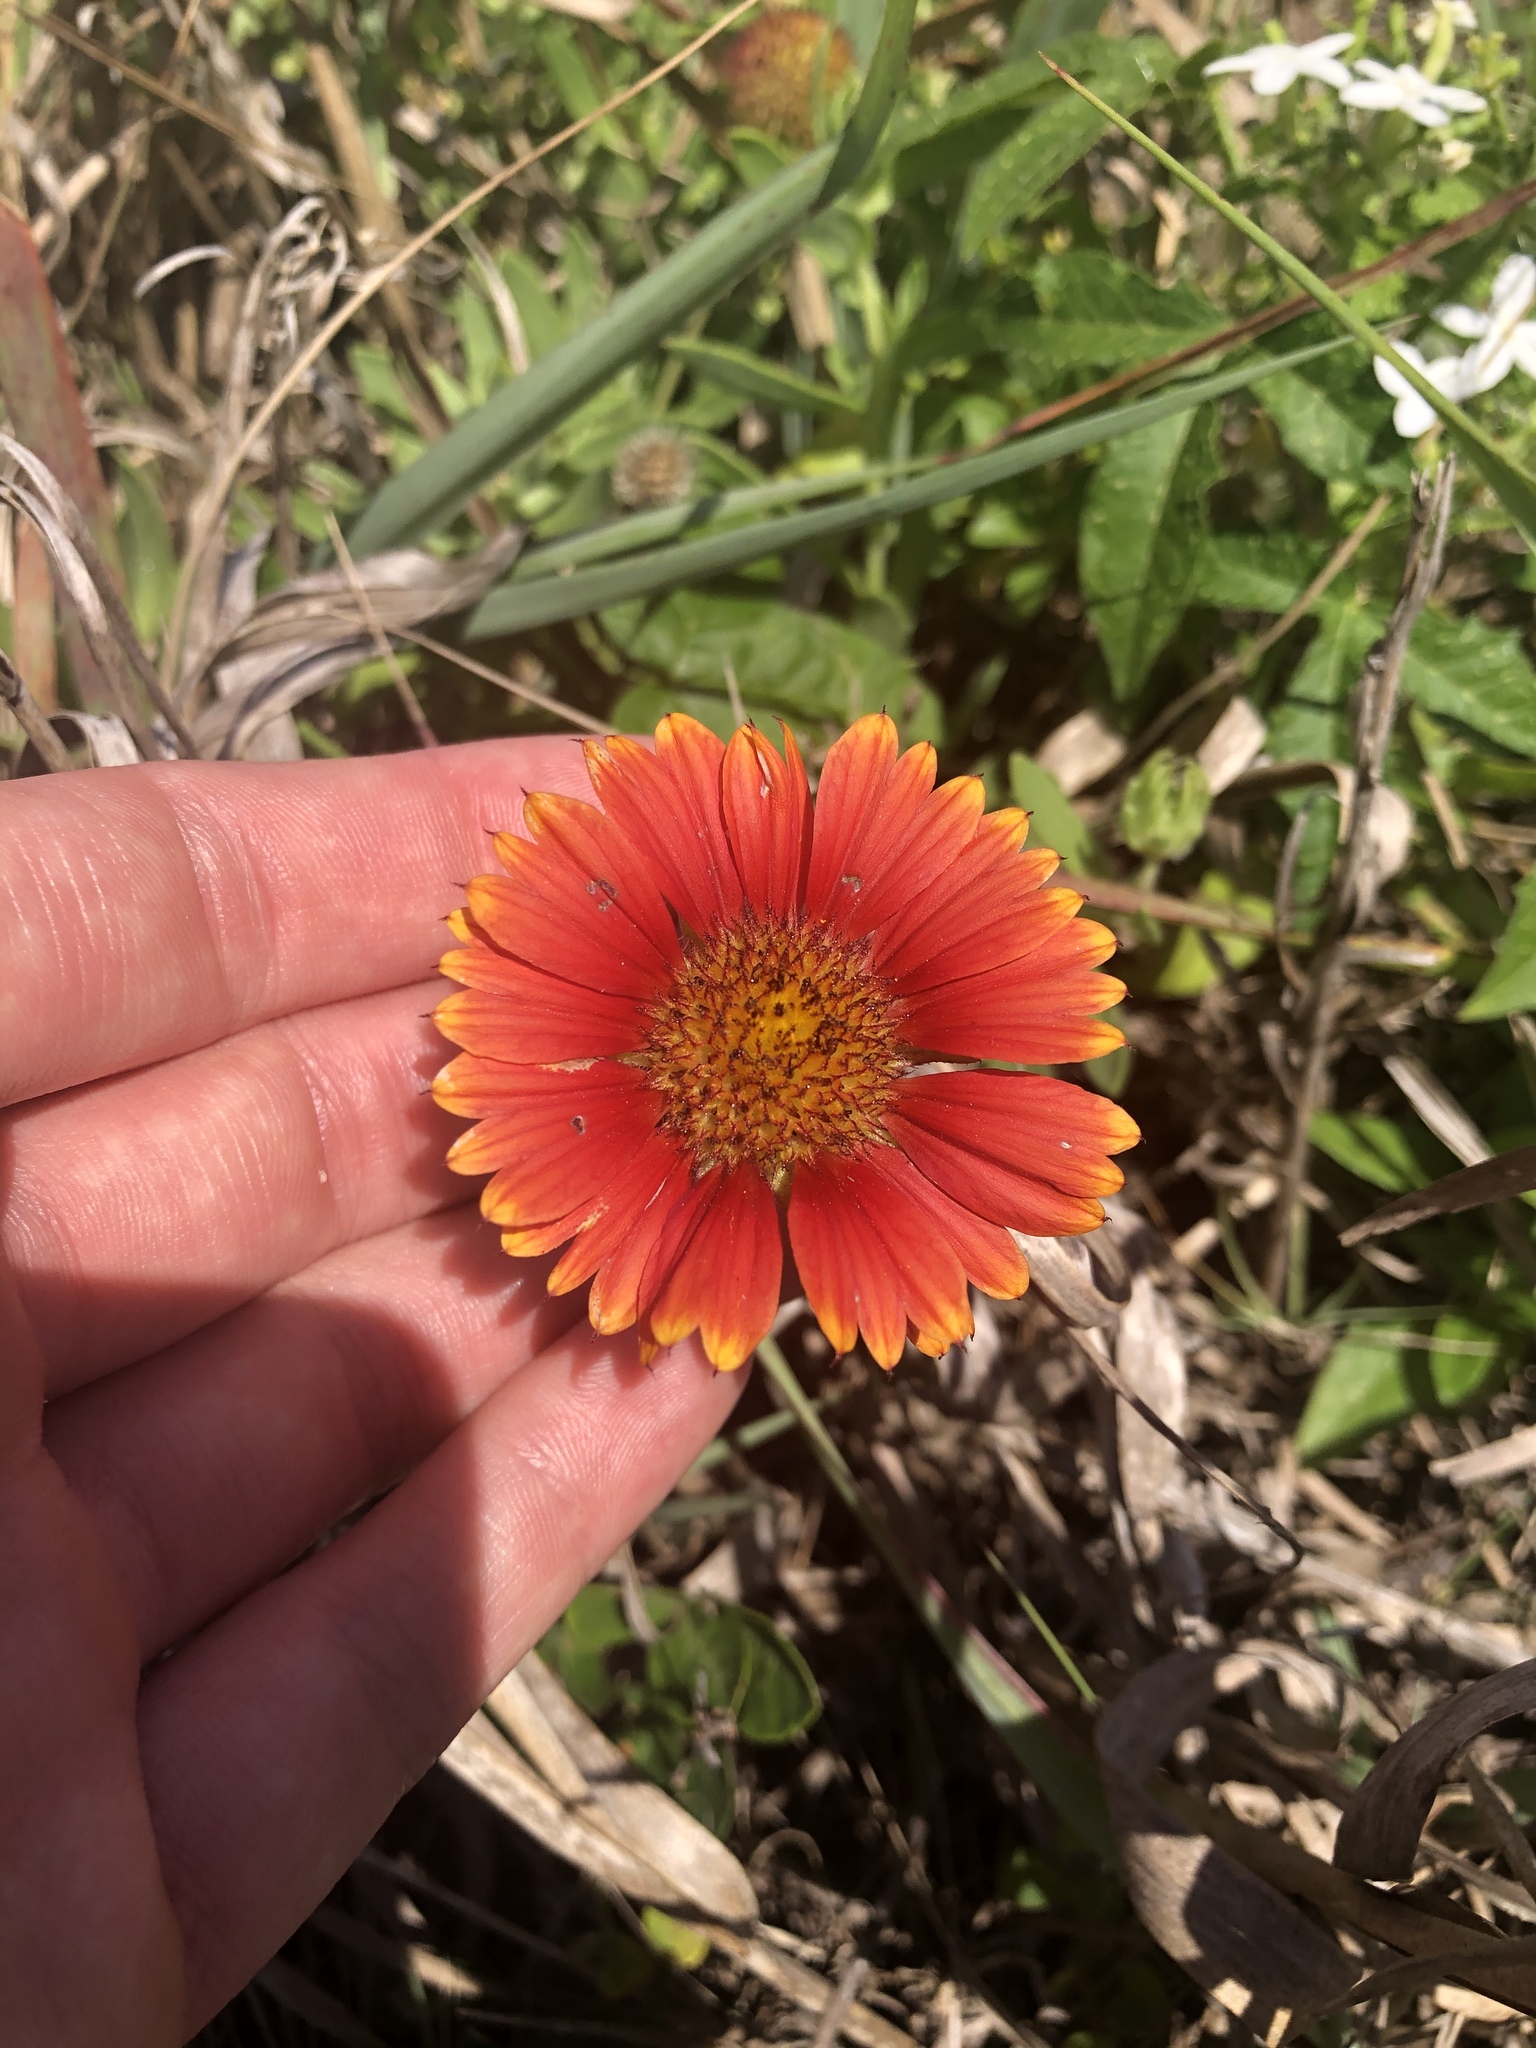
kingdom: Plantae
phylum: Tracheophyta
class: Magnoliopsida
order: Asterales
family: Asteraceae
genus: Gaillardia
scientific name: Gaillardia pulchella
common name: Firewheel
